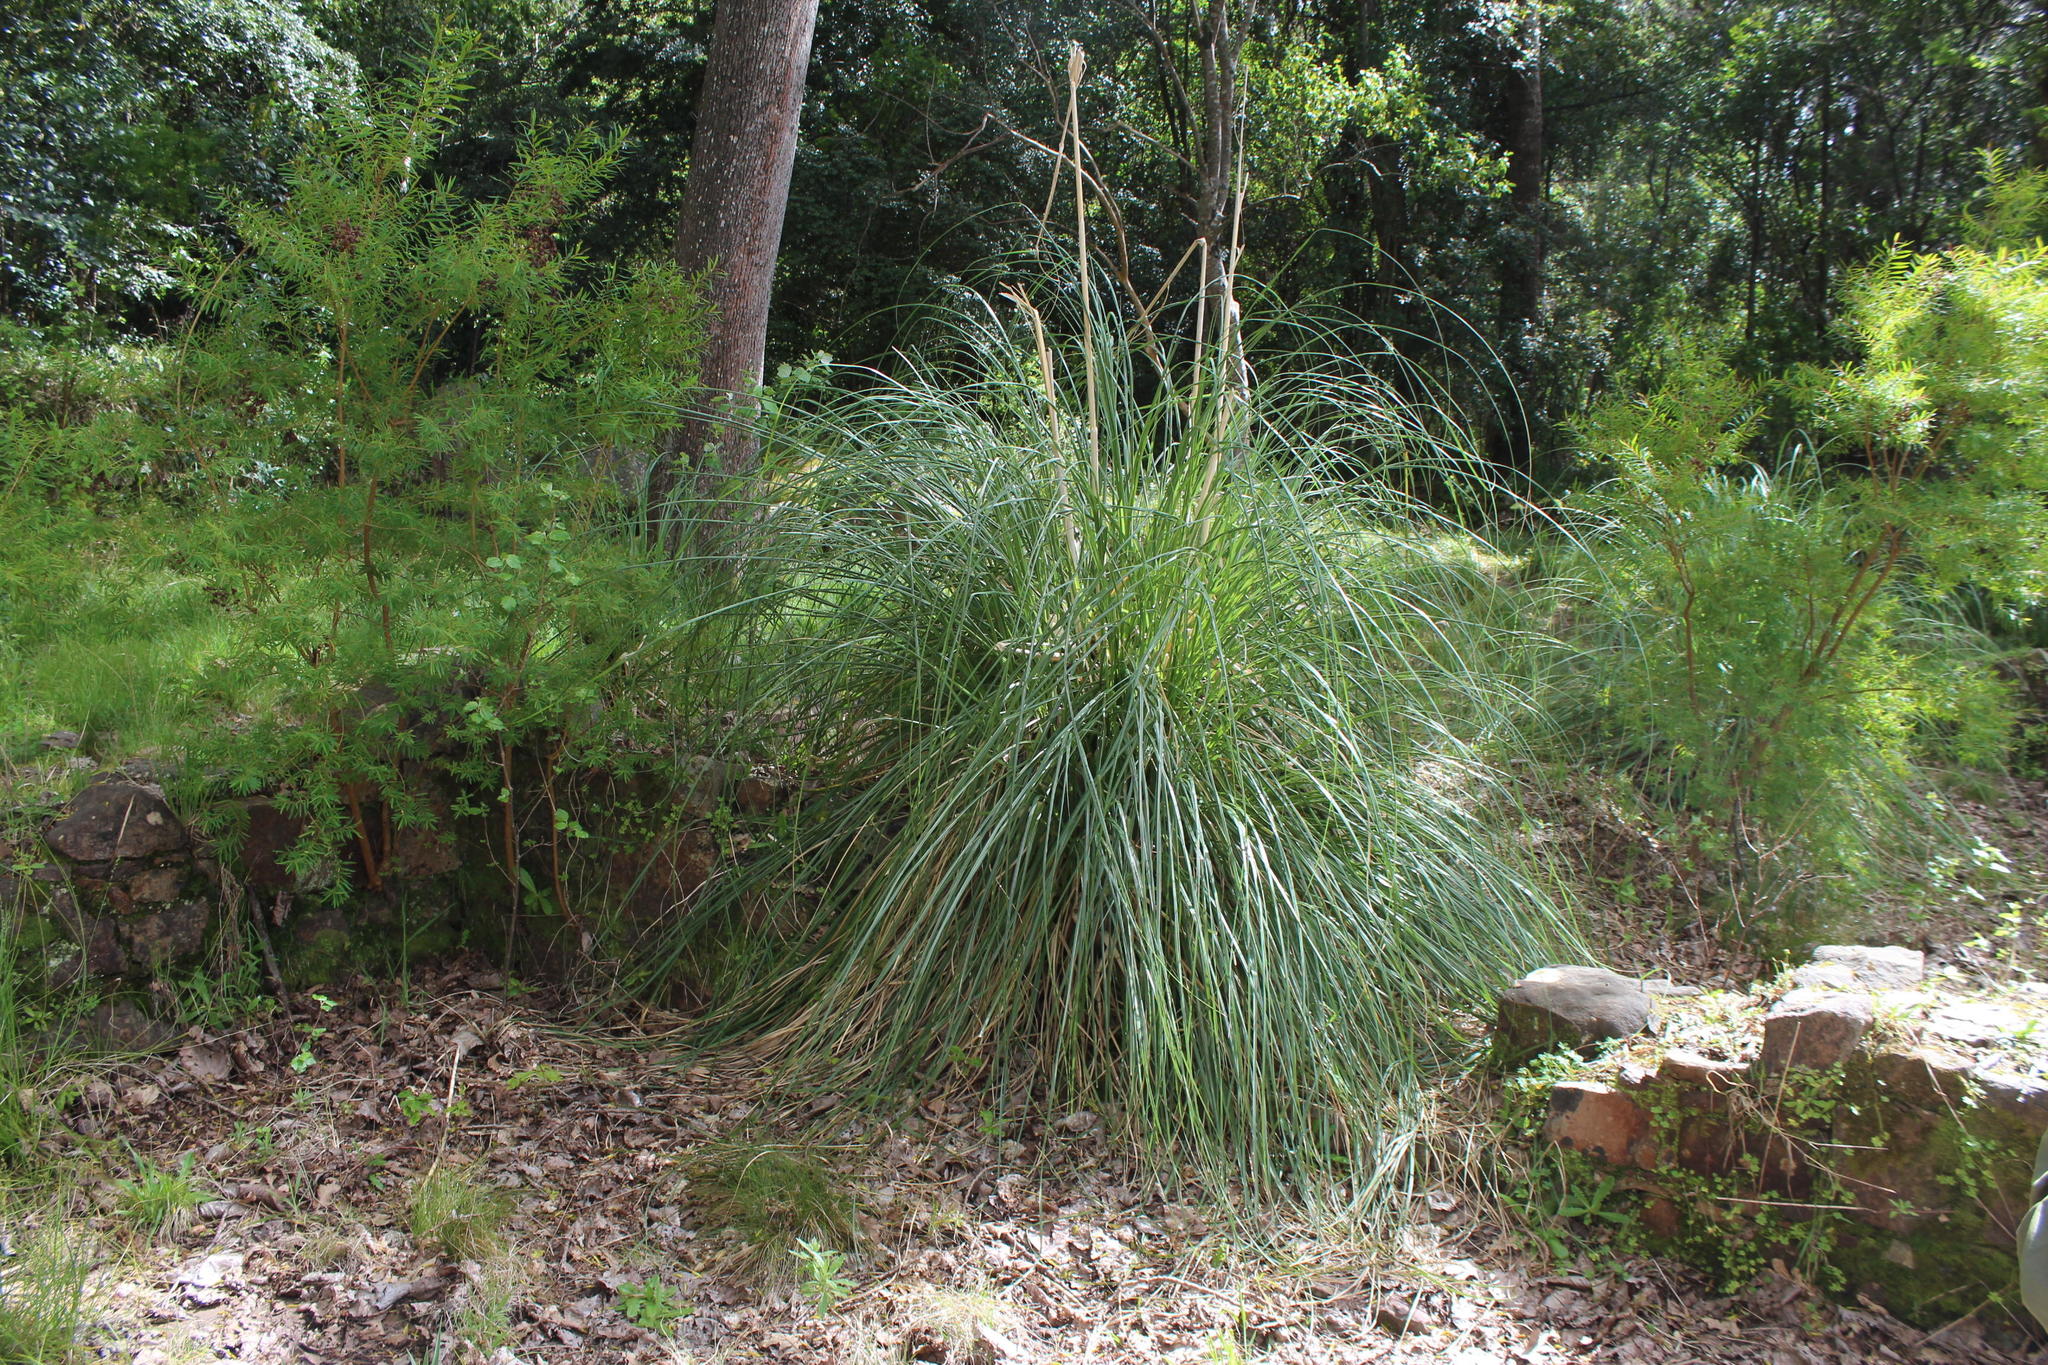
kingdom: Plantae
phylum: Tracheophyta
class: Liliopsida
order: Poales
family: Poaceae
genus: Cortaderia
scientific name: Cortaderia selloana
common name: Uruguayan pampas grass
